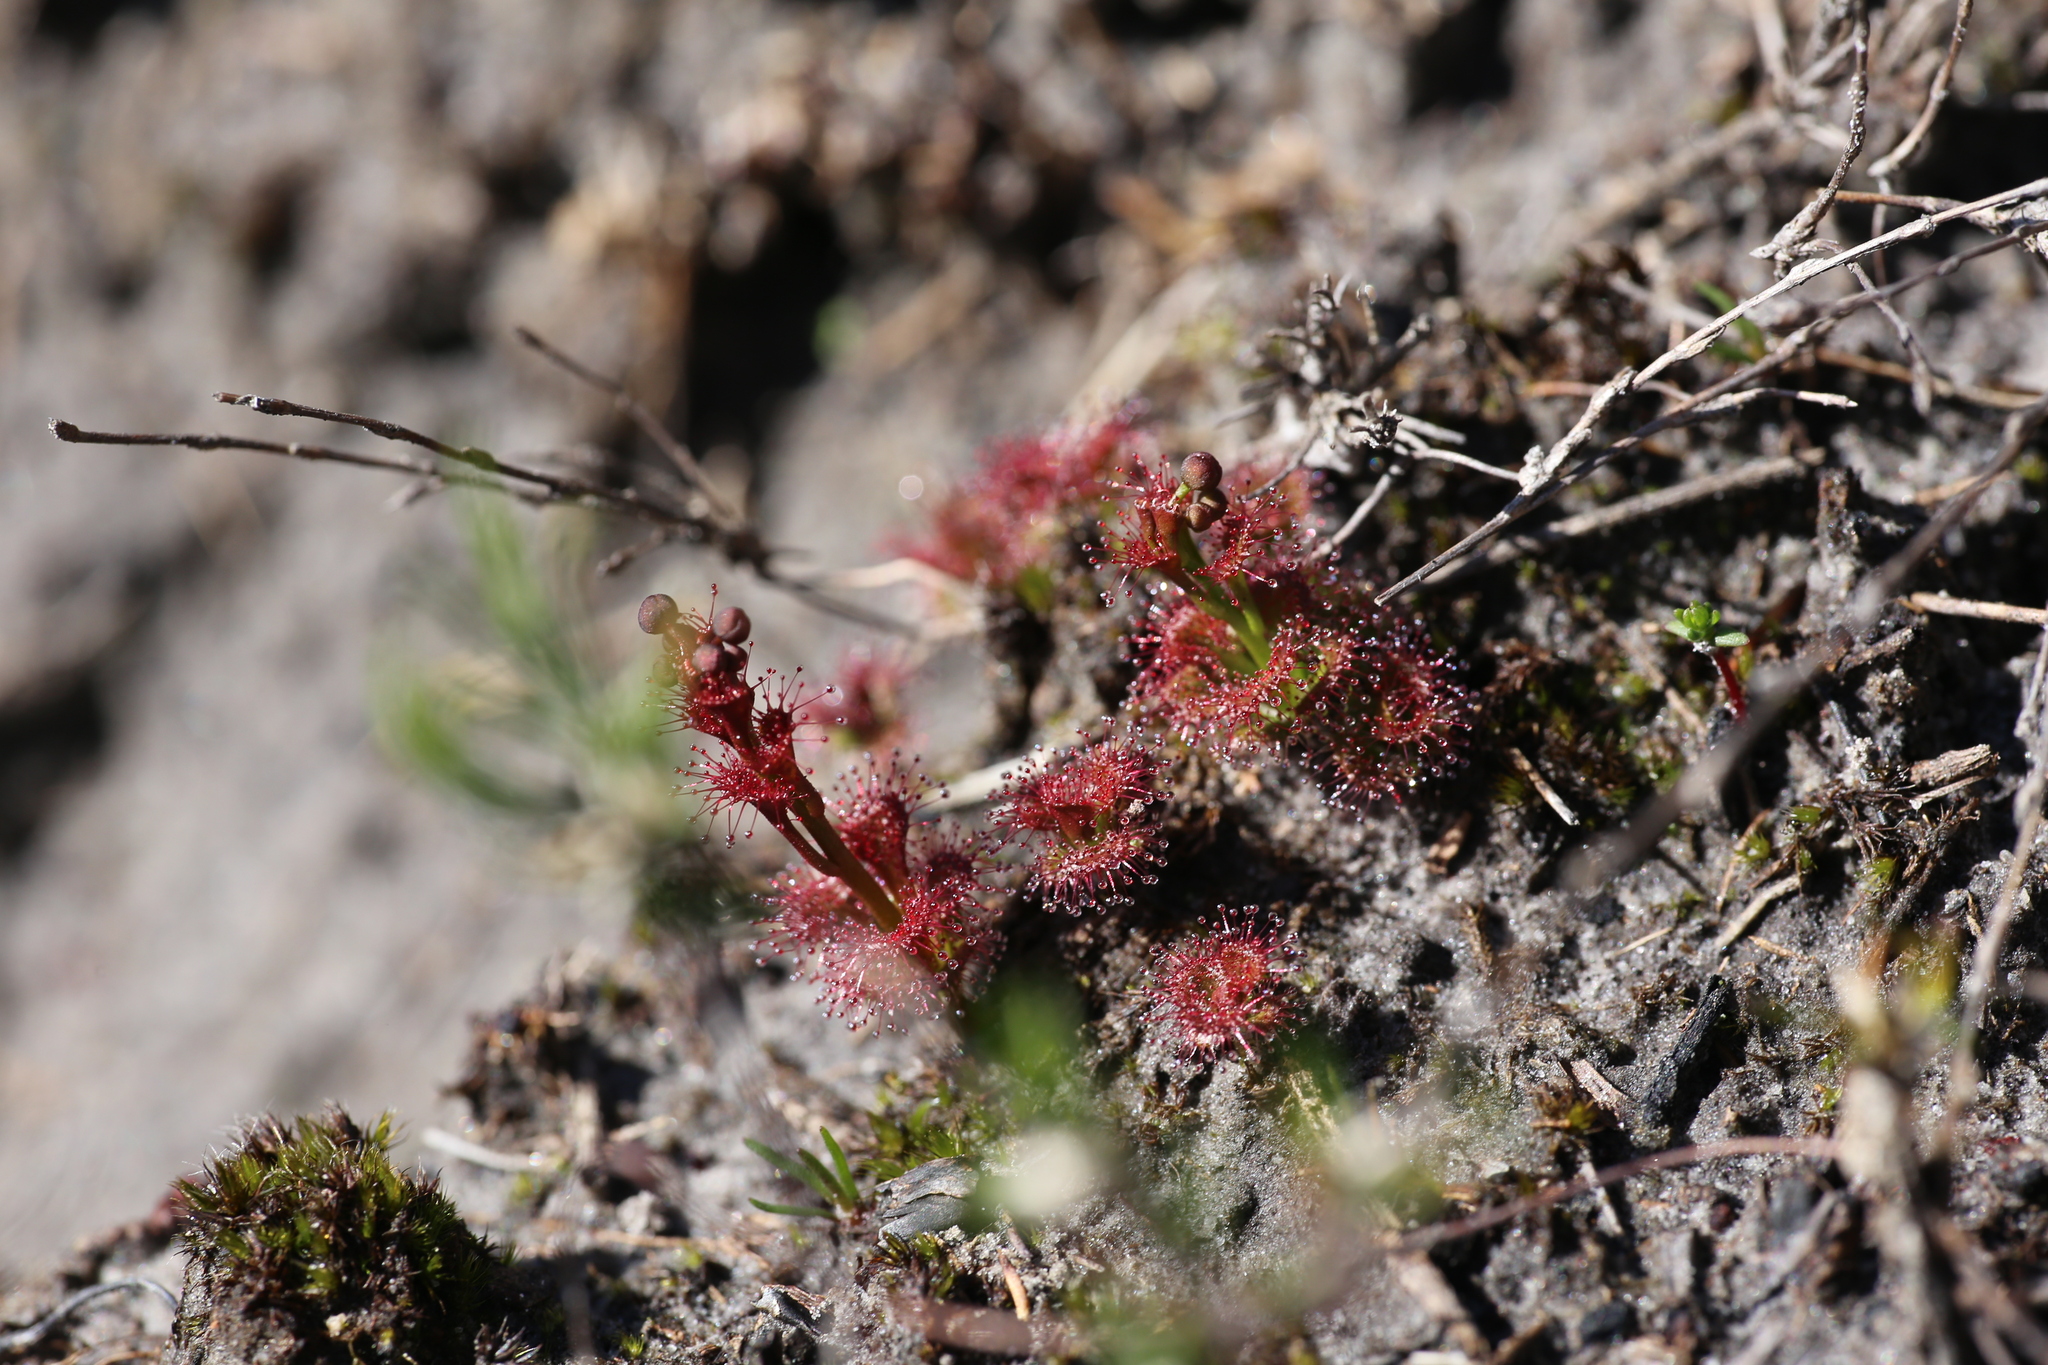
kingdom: Plantae
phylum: Tracheophyta
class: Magnoliopsida
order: Caryophyllales
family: Droseraceae
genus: Drosera
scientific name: Drosera platypoda
